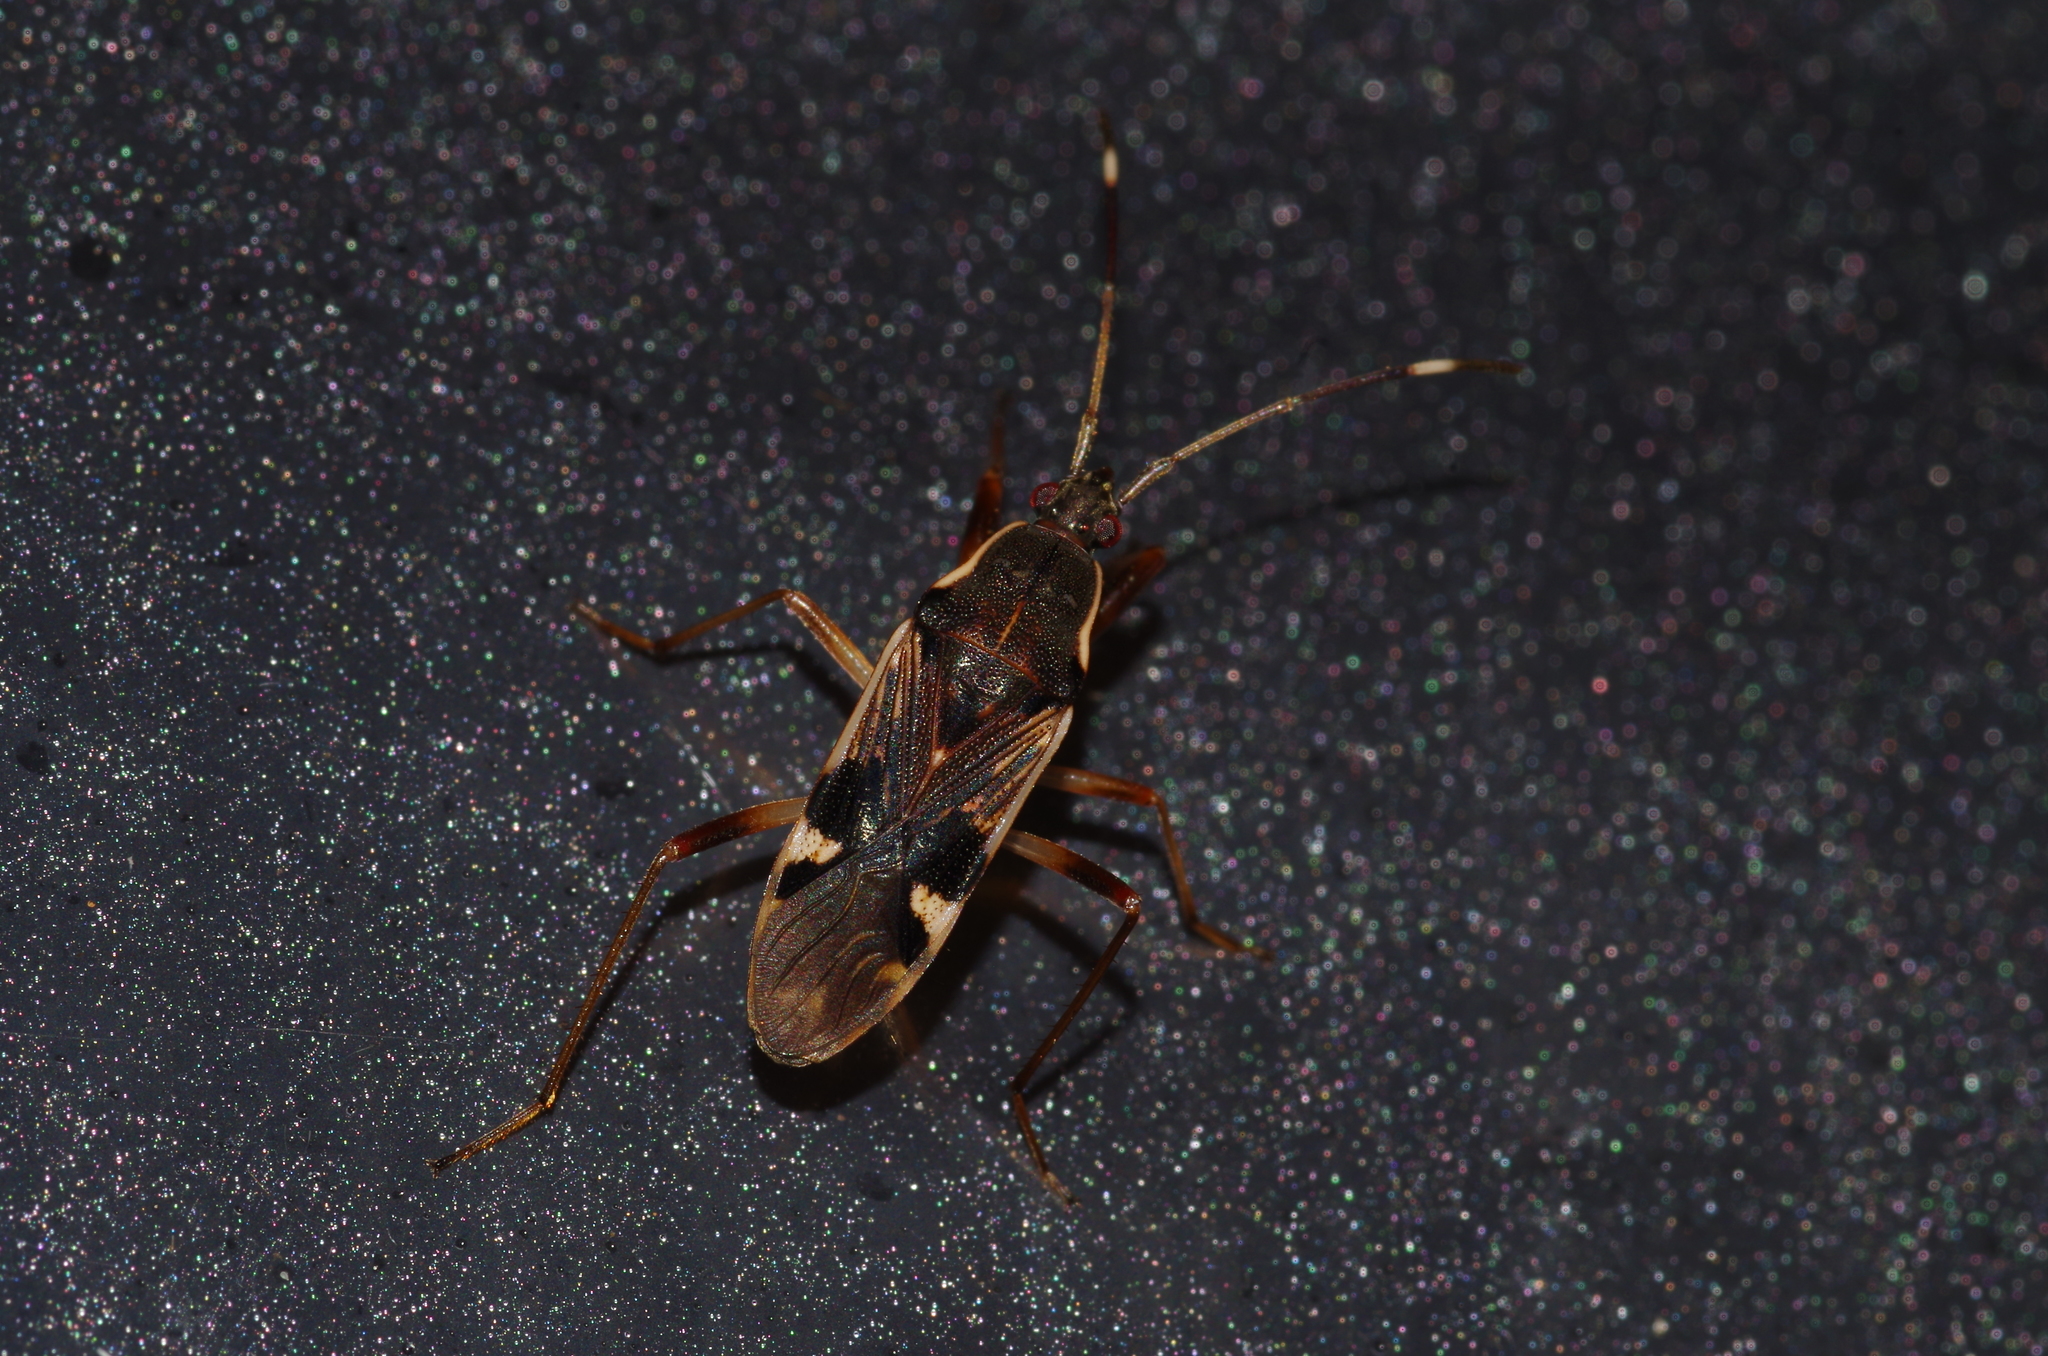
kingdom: Animalia
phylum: Arthropoda
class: Insecta
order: Hemiptera
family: Rhyparochromidae
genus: Dieuches
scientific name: Dieuches parvimaculatus
